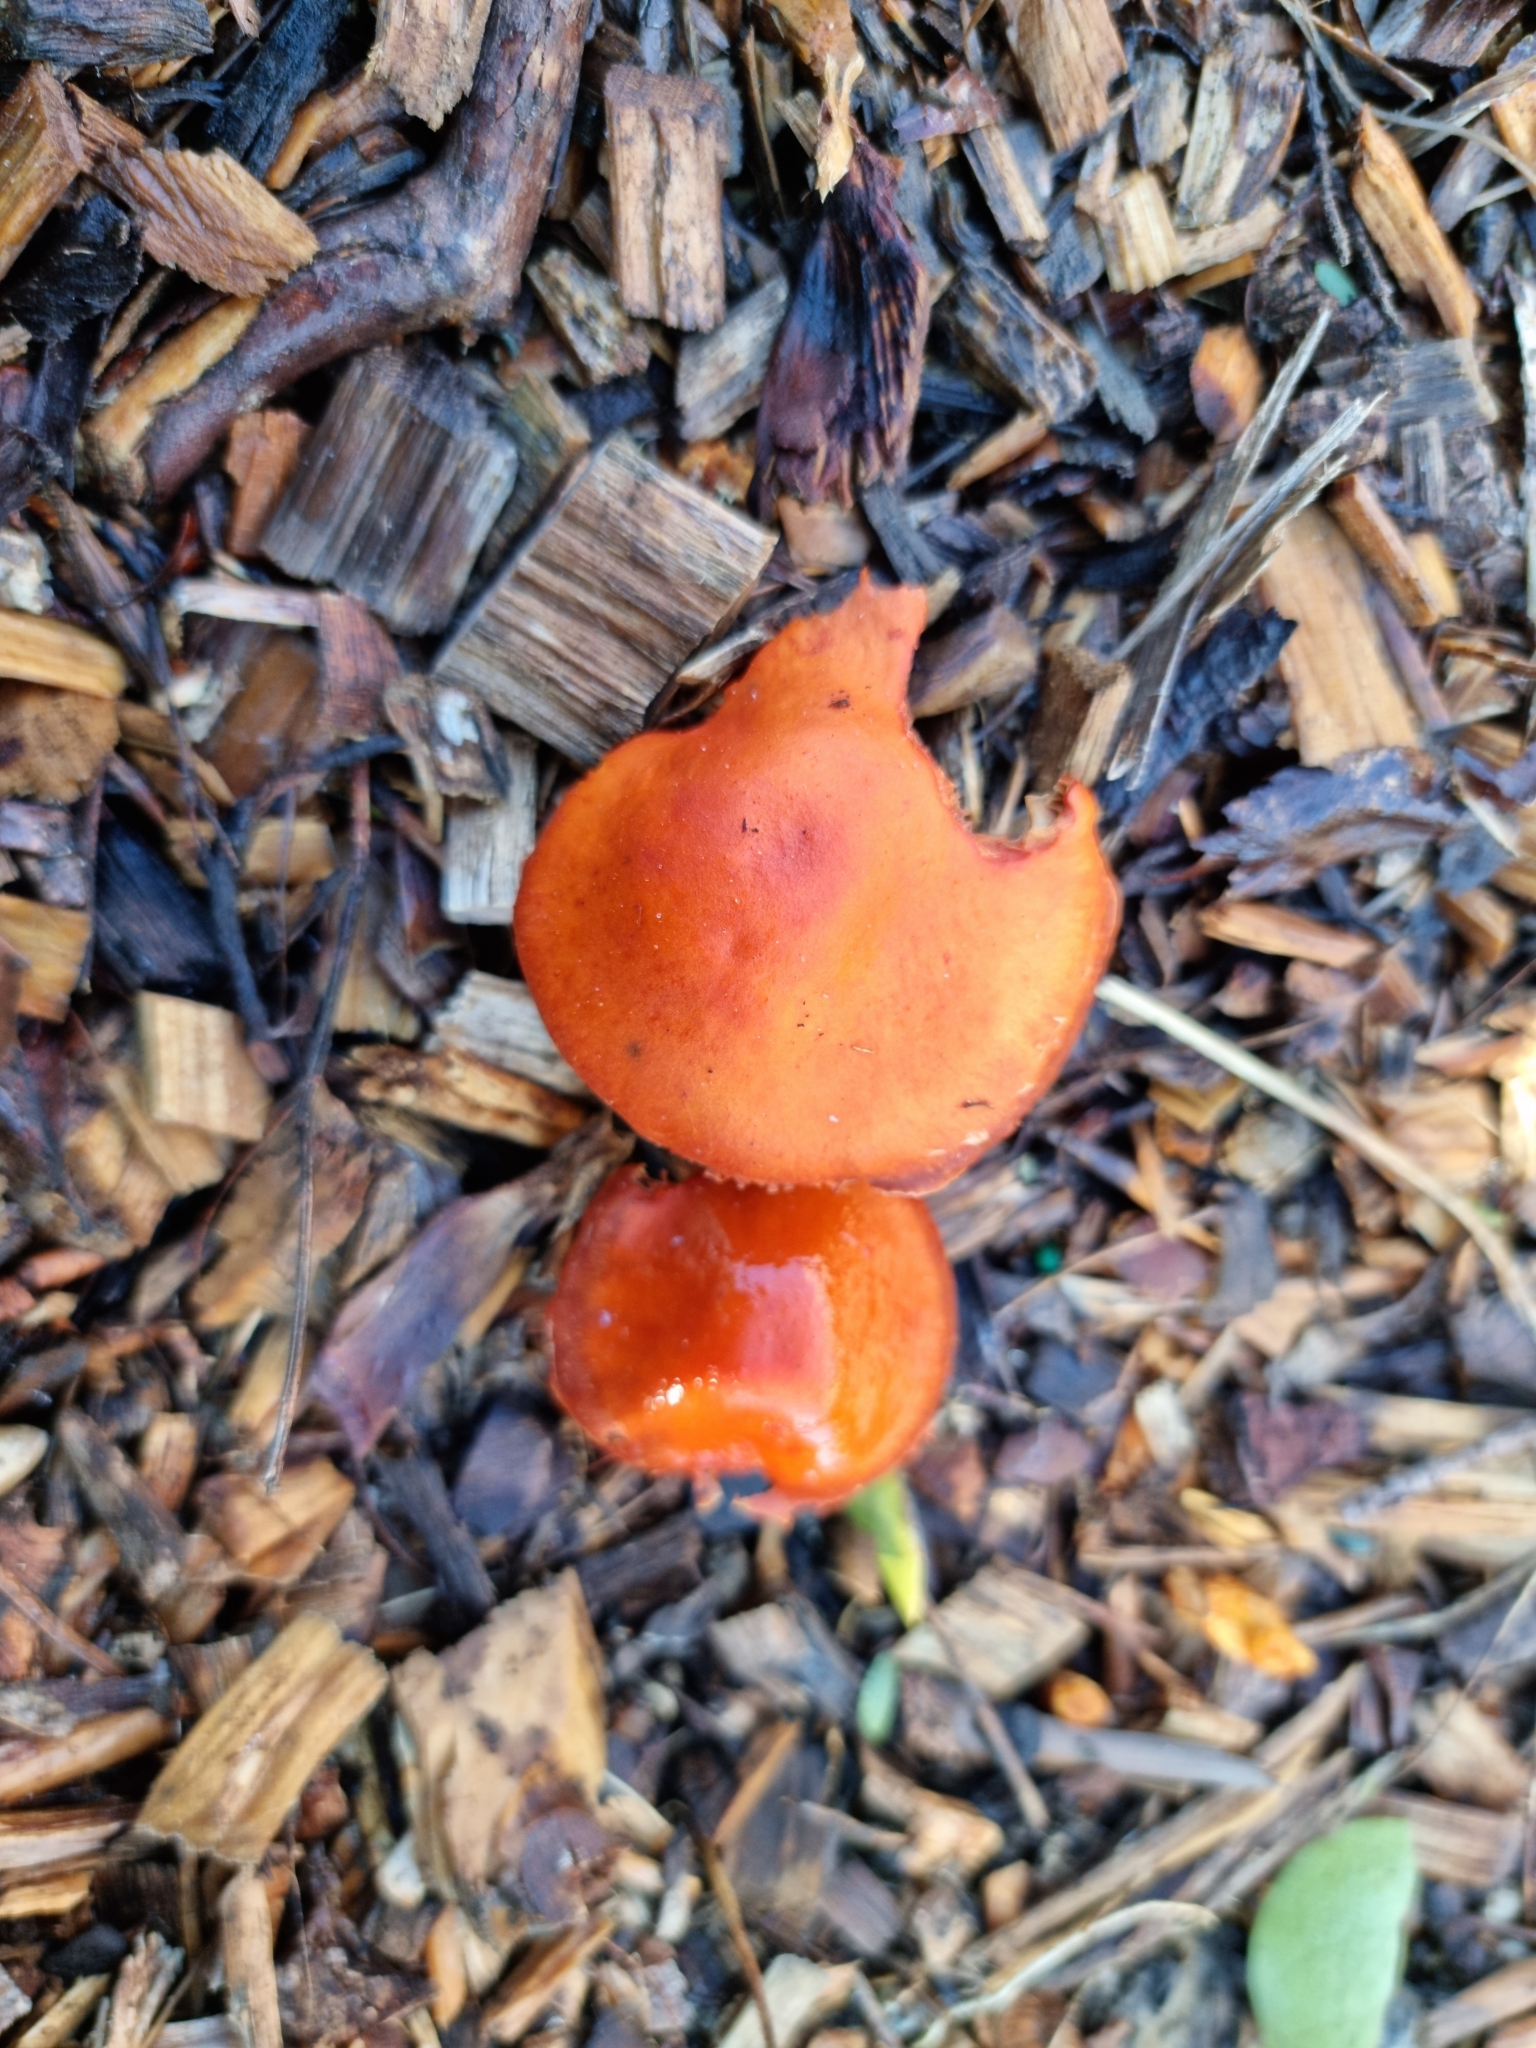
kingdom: Fungi
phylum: Basidiomycota
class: Agaricomycetes
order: Agaricales
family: Strophariaceae
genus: Leratiomyces
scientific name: Leratiomyces ceres
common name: Redlead roundhead
